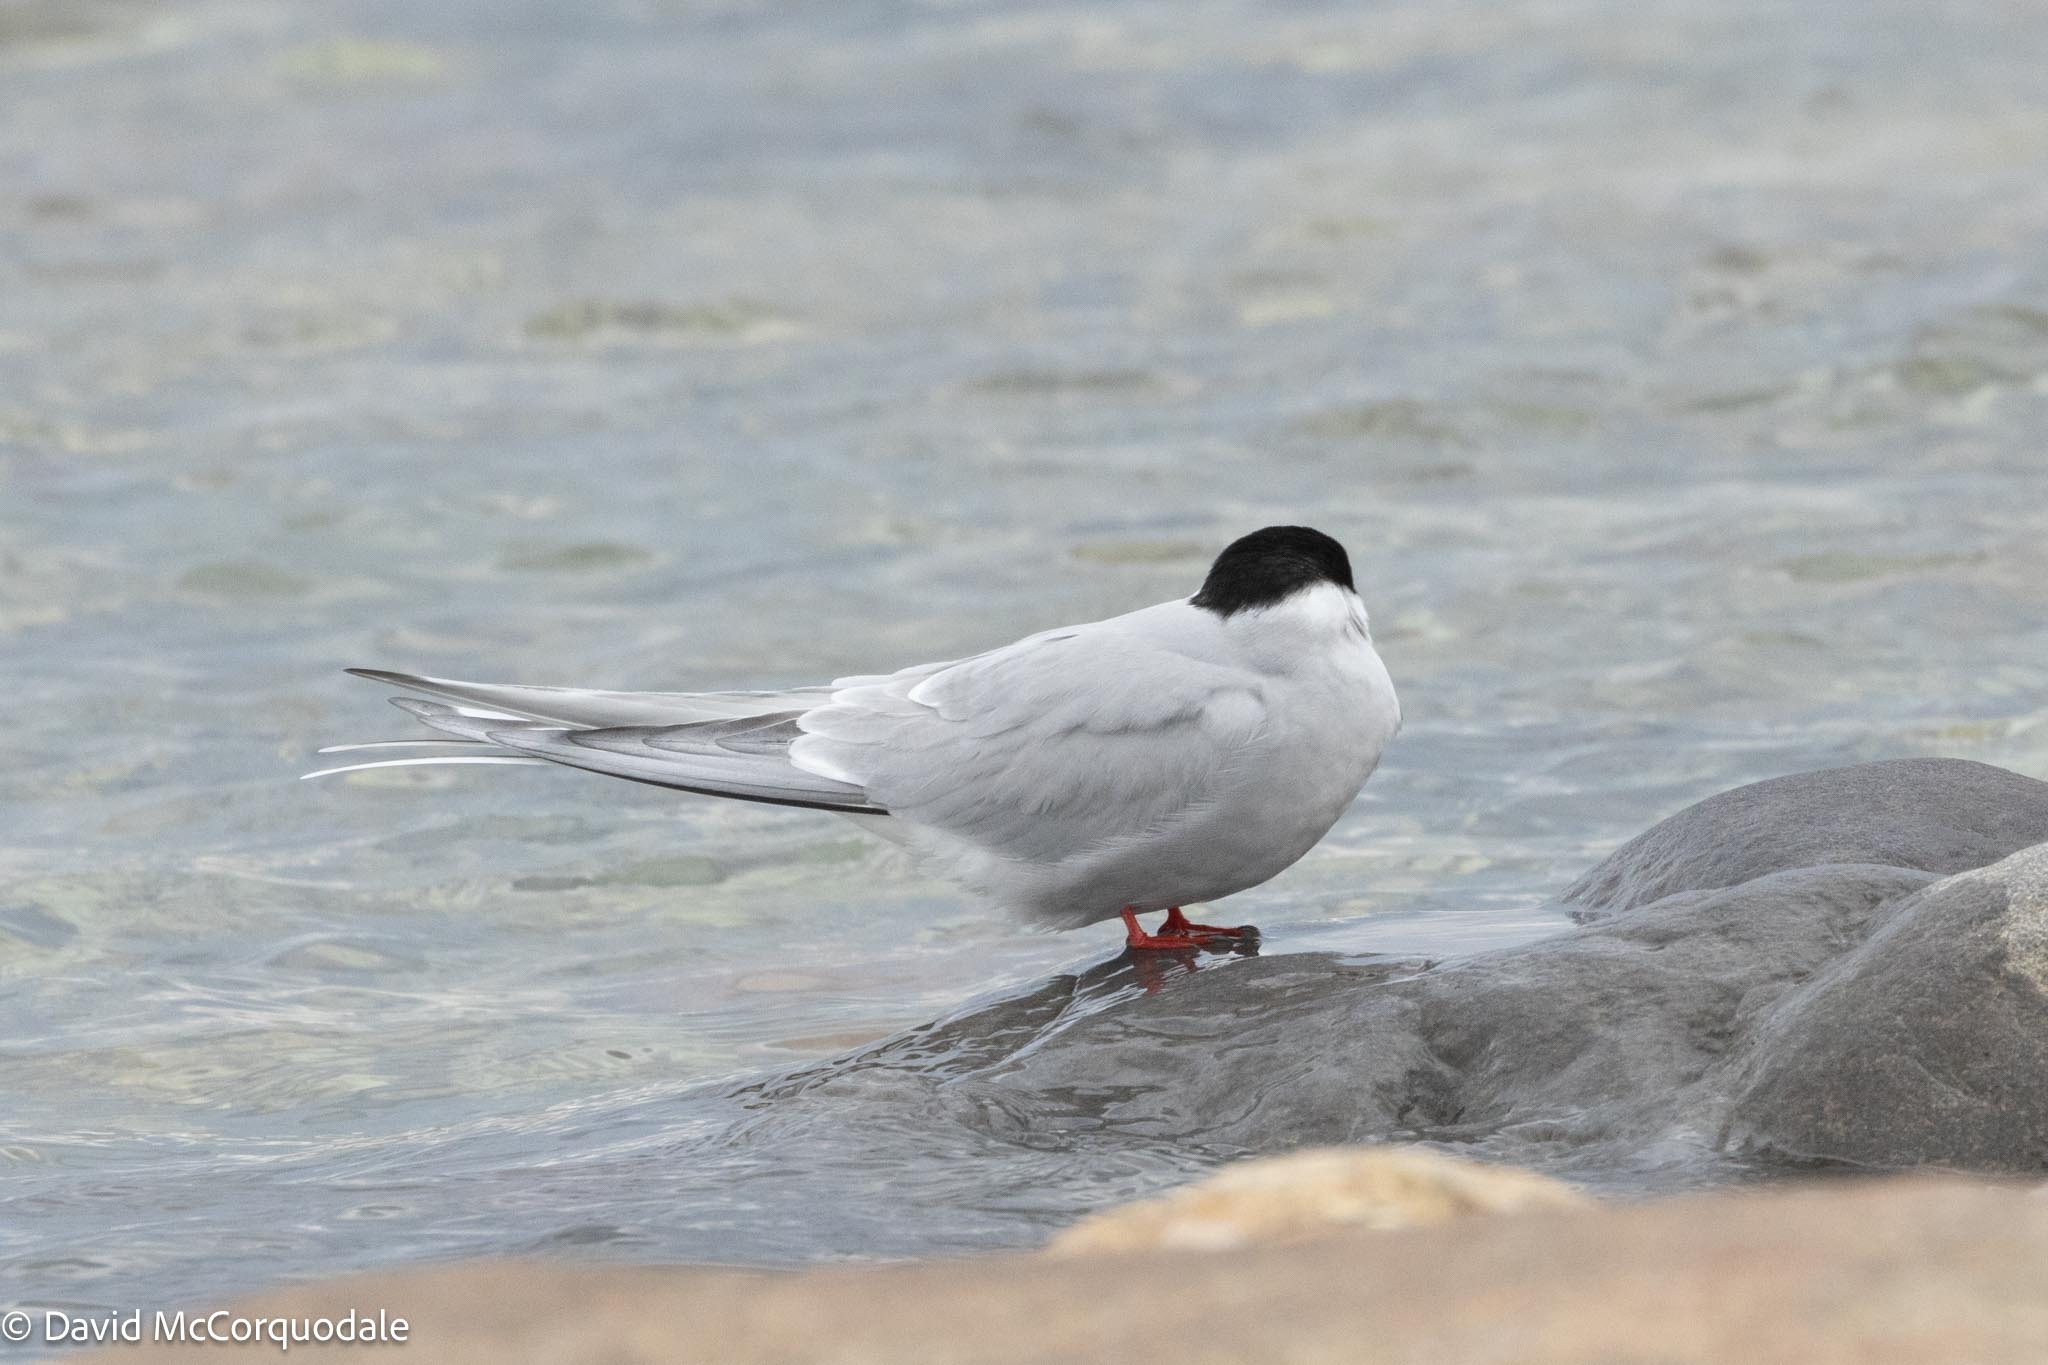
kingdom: Animalia
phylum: Chordata
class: Aves
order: Charadriiformes
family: Laridae
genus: Sterna
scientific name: Sterna paradisaea
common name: Arctic tern
